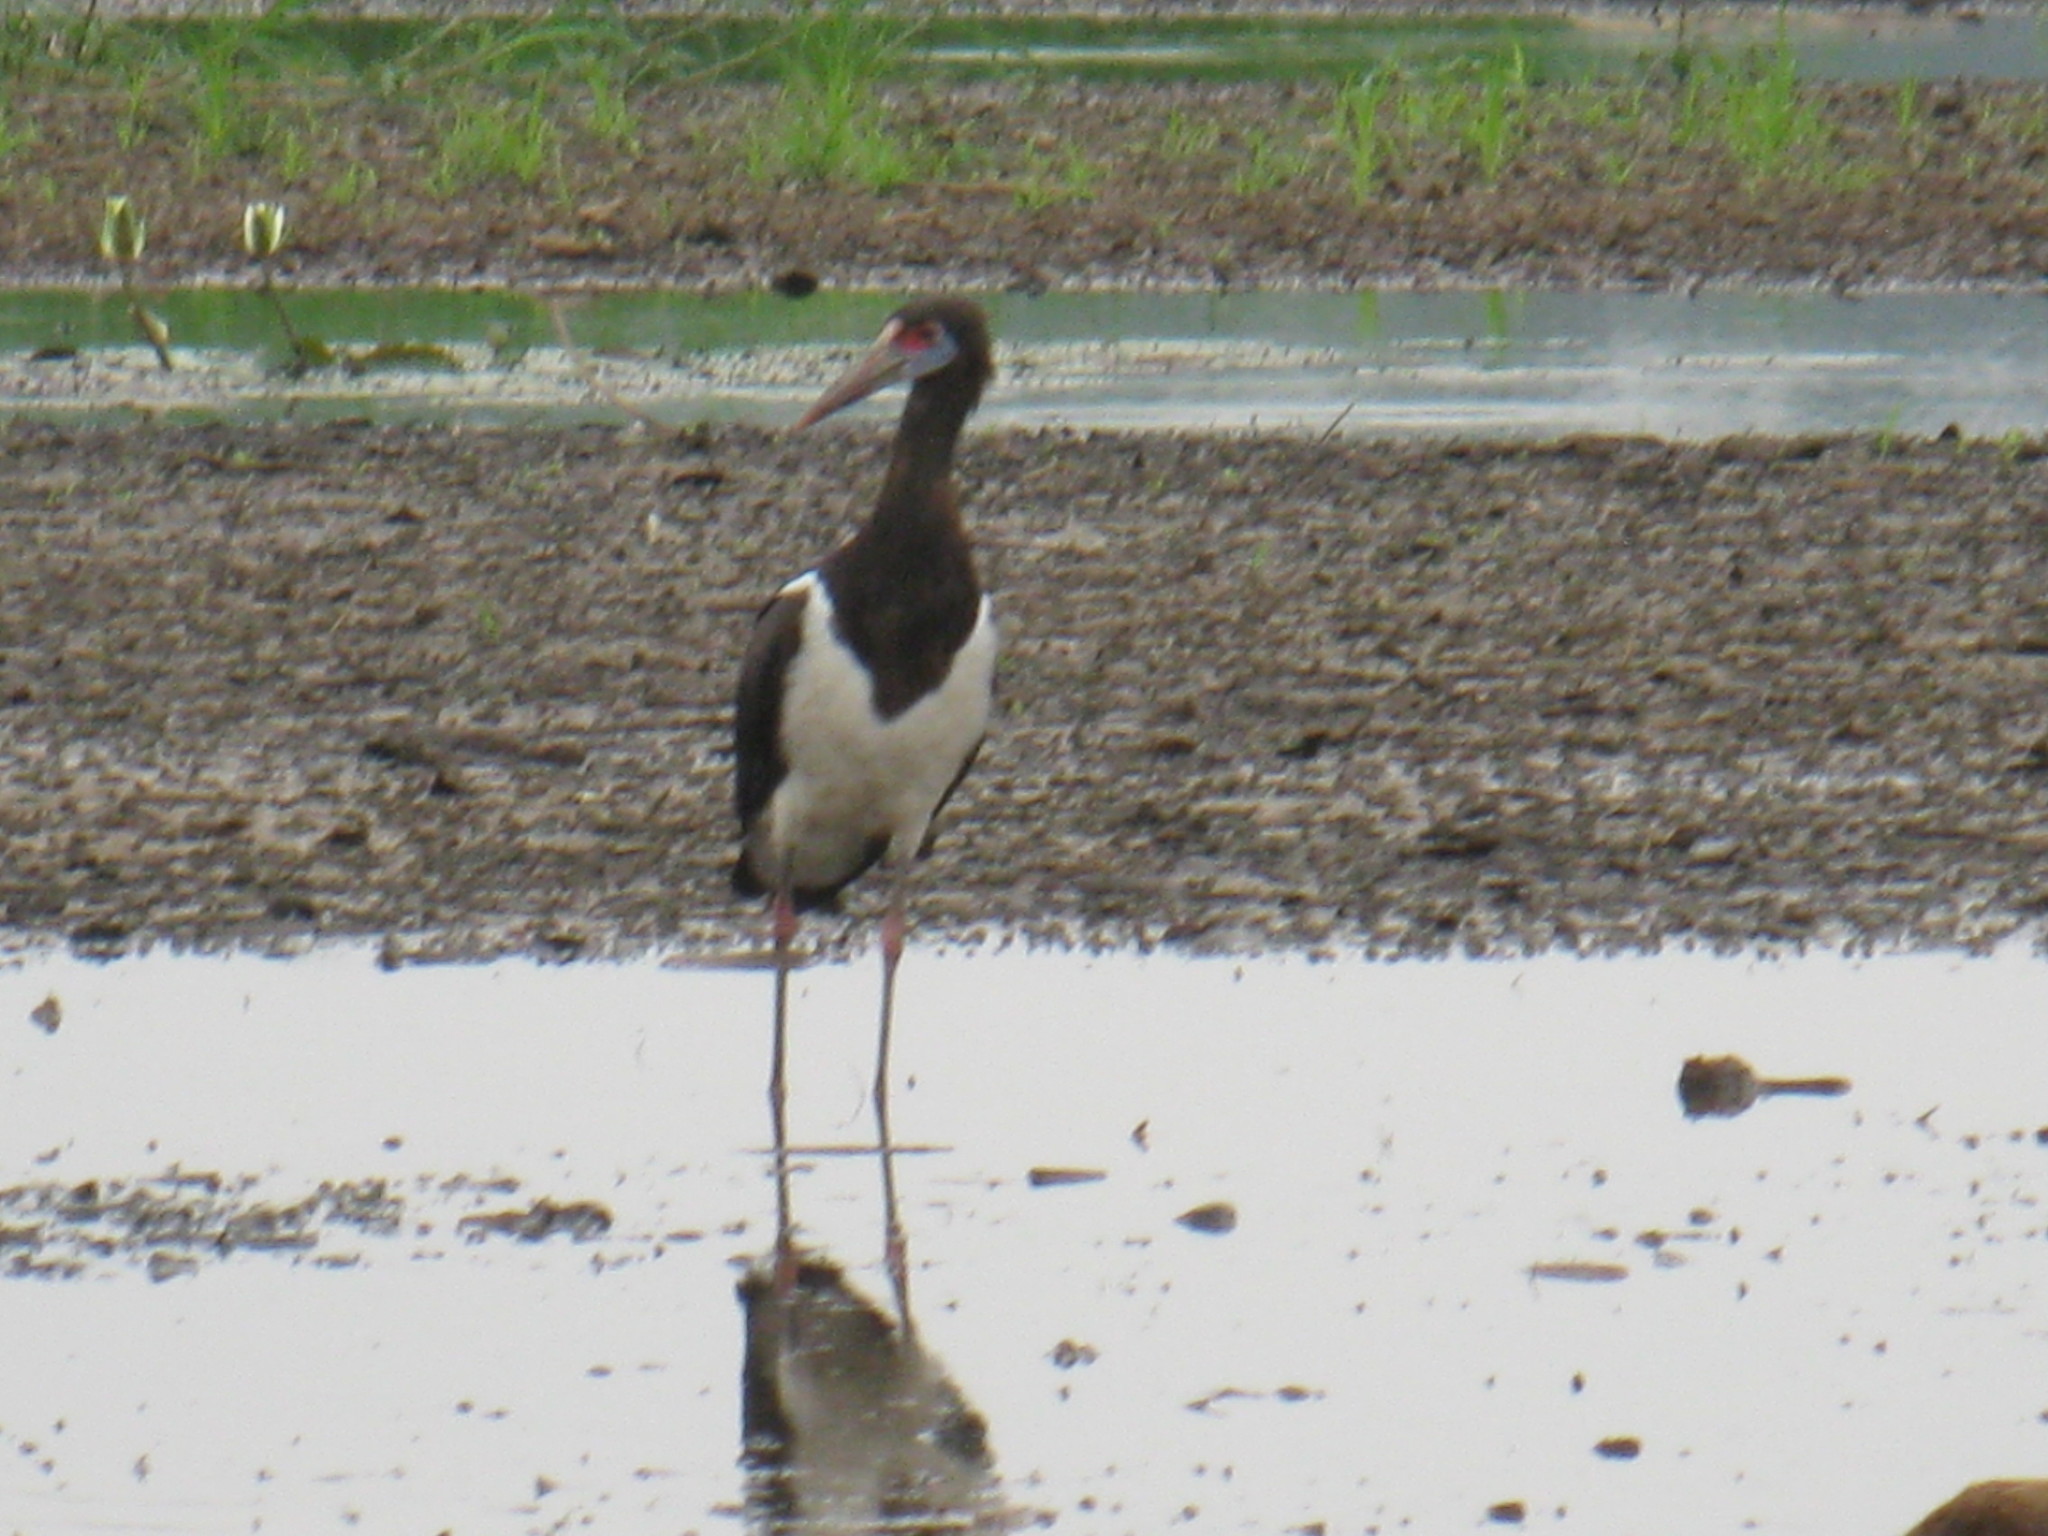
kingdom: Animalia
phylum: Chordata
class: Aves
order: Ciconiiformes
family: Ciconiidae
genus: Ciconia
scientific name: Ciconia abdimii
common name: Abdim's stork
